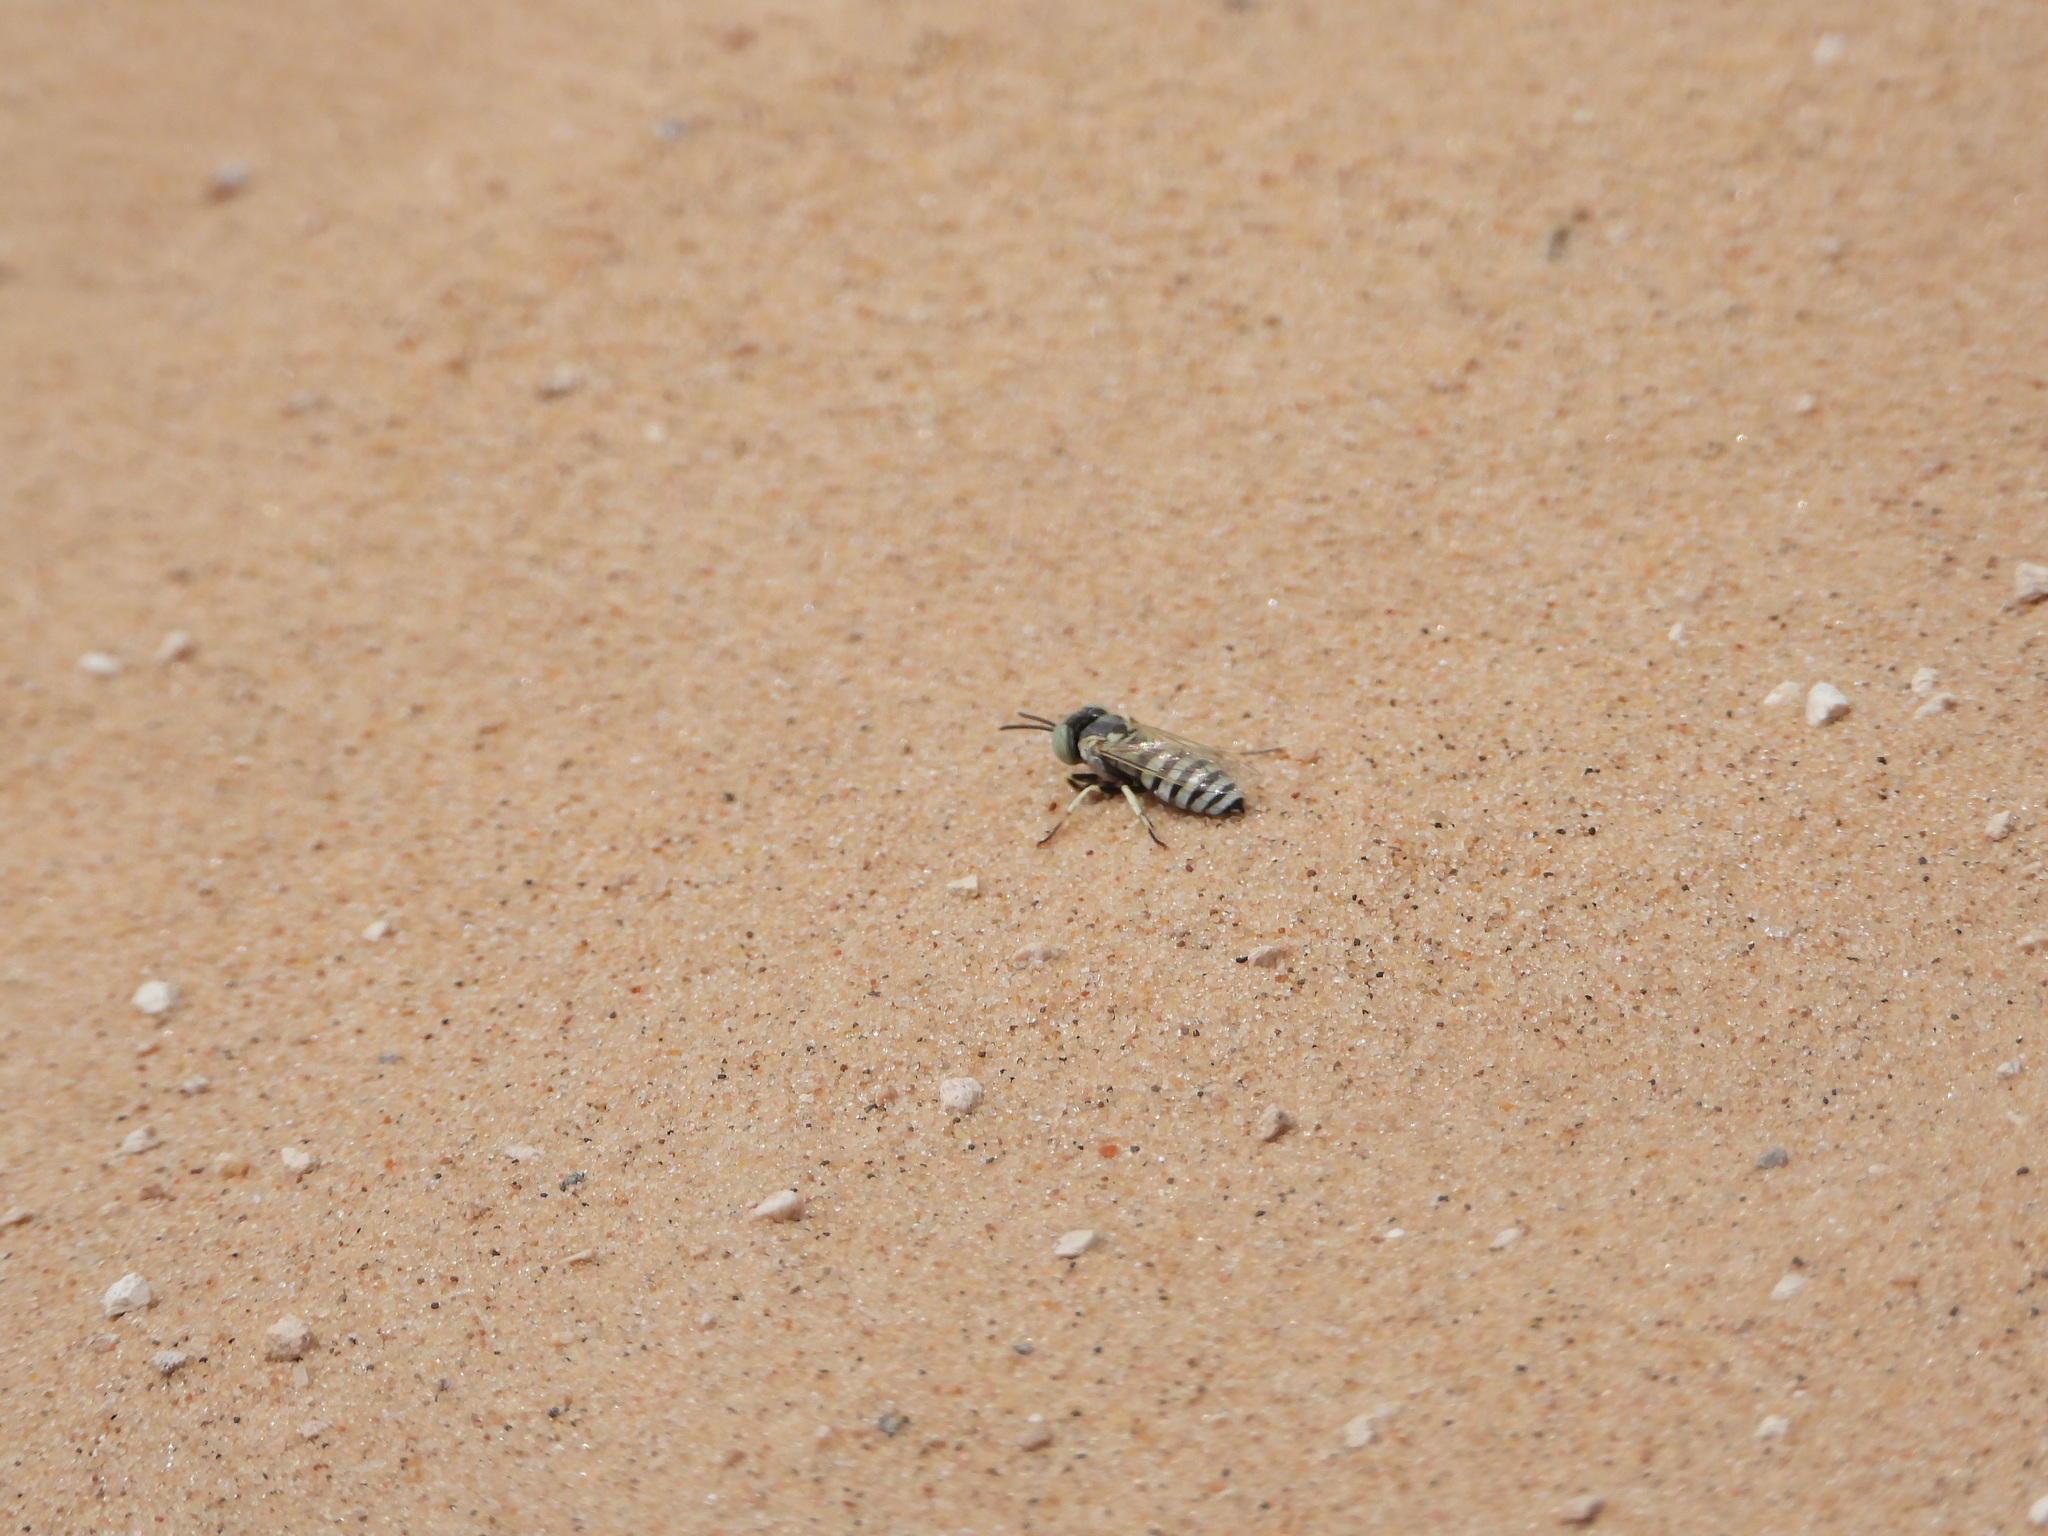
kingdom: Animalia
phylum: Arthropoda
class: Insecta
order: Hymenoptera
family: Crabronidae
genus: Microbembex
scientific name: Microbembex
